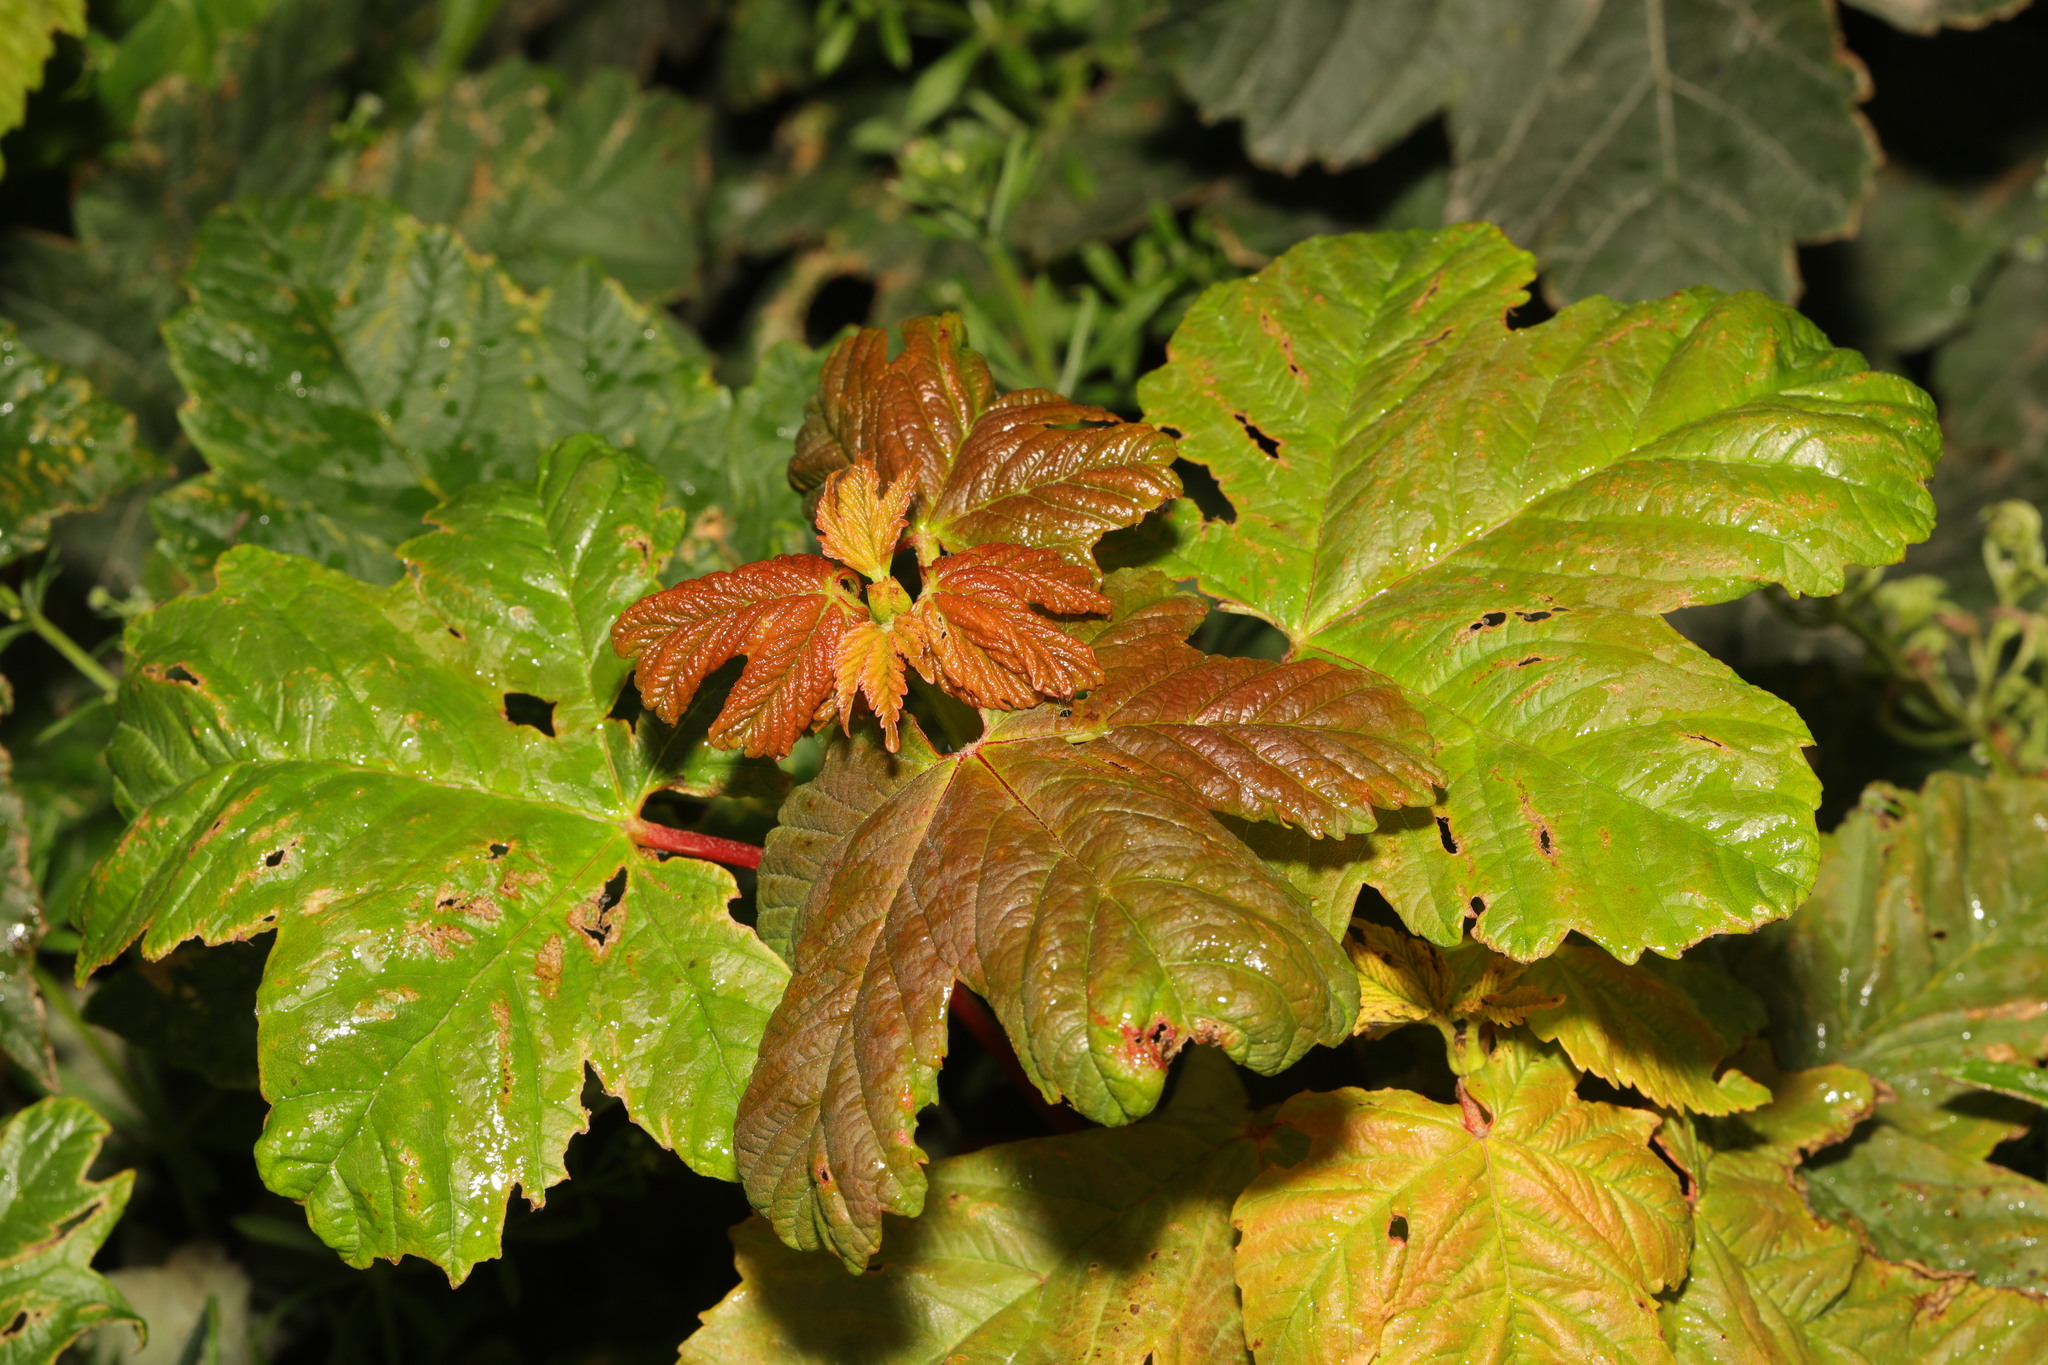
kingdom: Plantae
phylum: Tracheophyta
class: Magnoliopsida
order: Sapindales
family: Sapindaceae
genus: Acer
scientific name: Acer pseudoplatanus
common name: Sycamore
